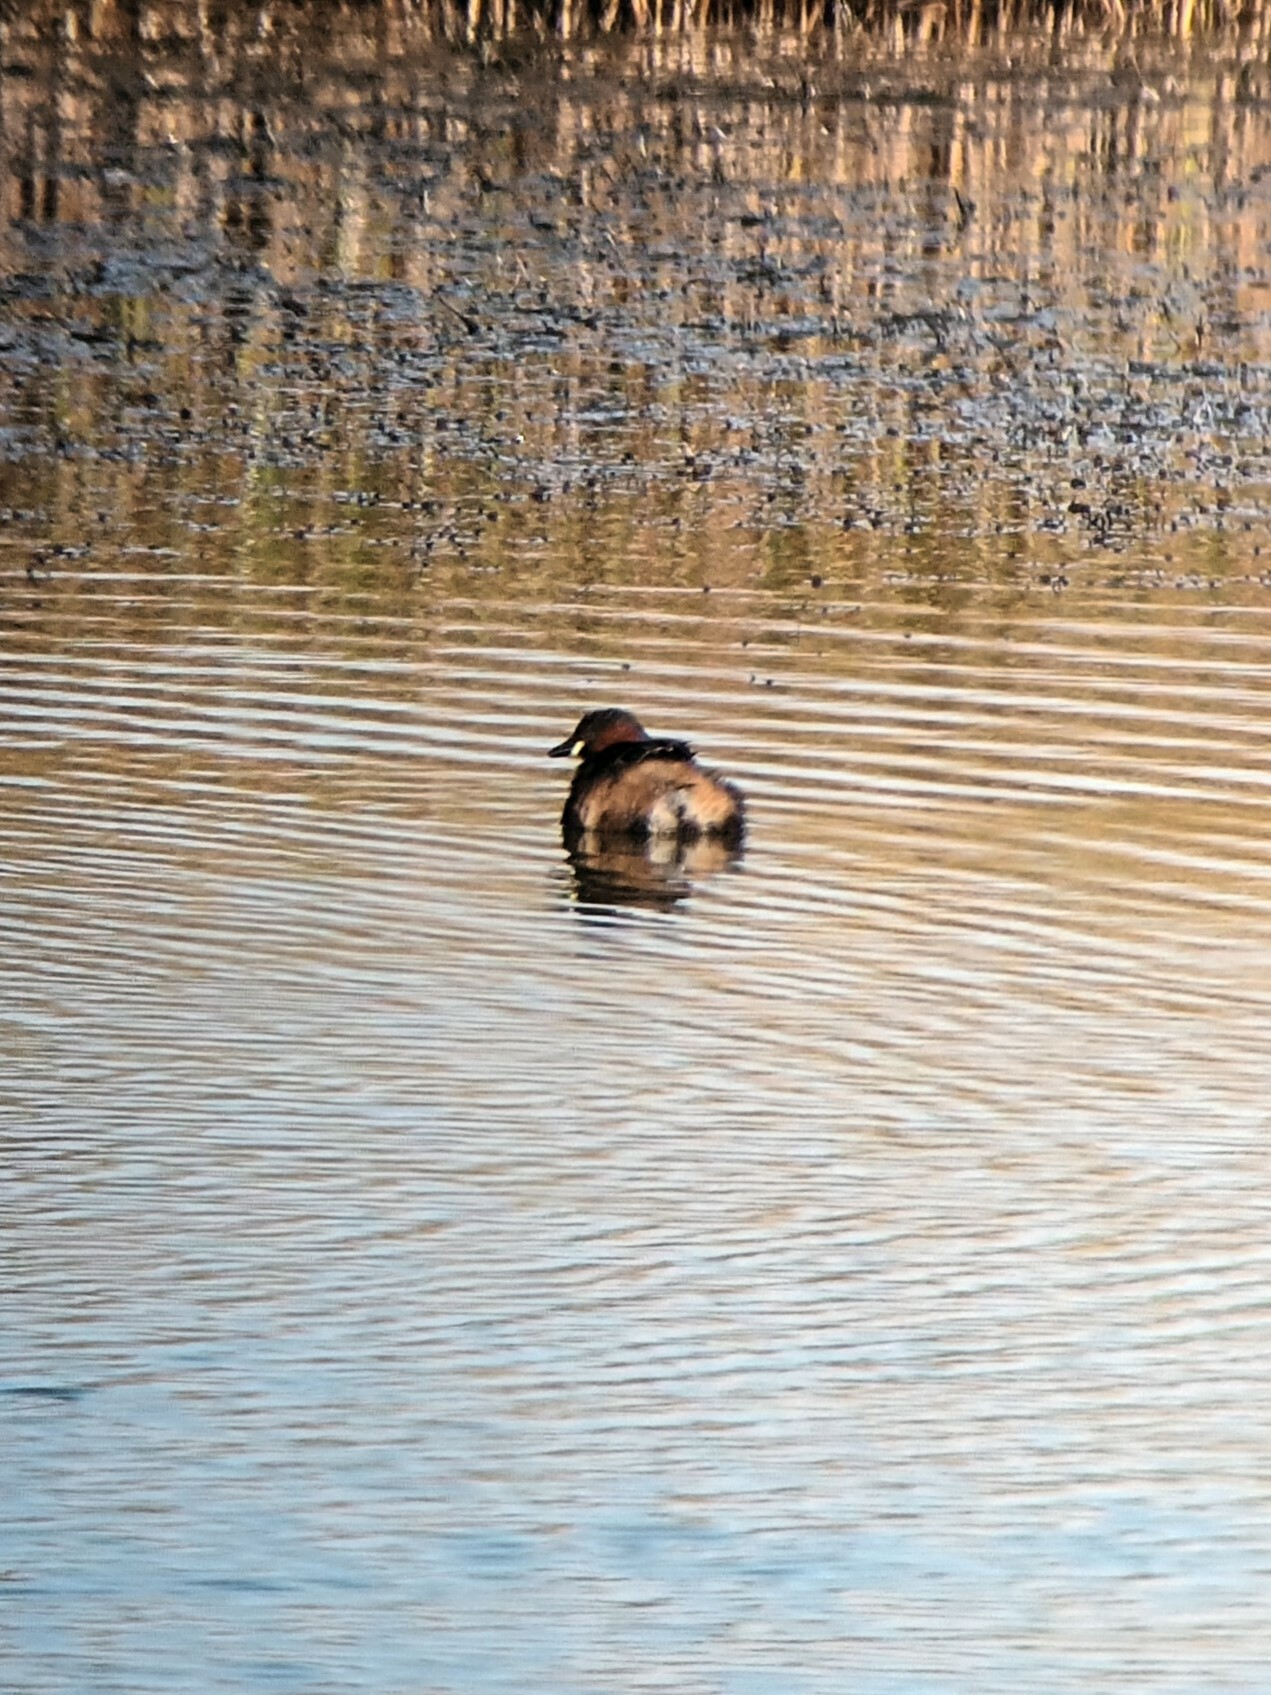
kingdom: Animalia
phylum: Chordata
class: Aves
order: Podicipediformes
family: Podicipedidae
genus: Tachybaptus
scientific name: Tachybaptus ruficollis
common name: Little grebe
